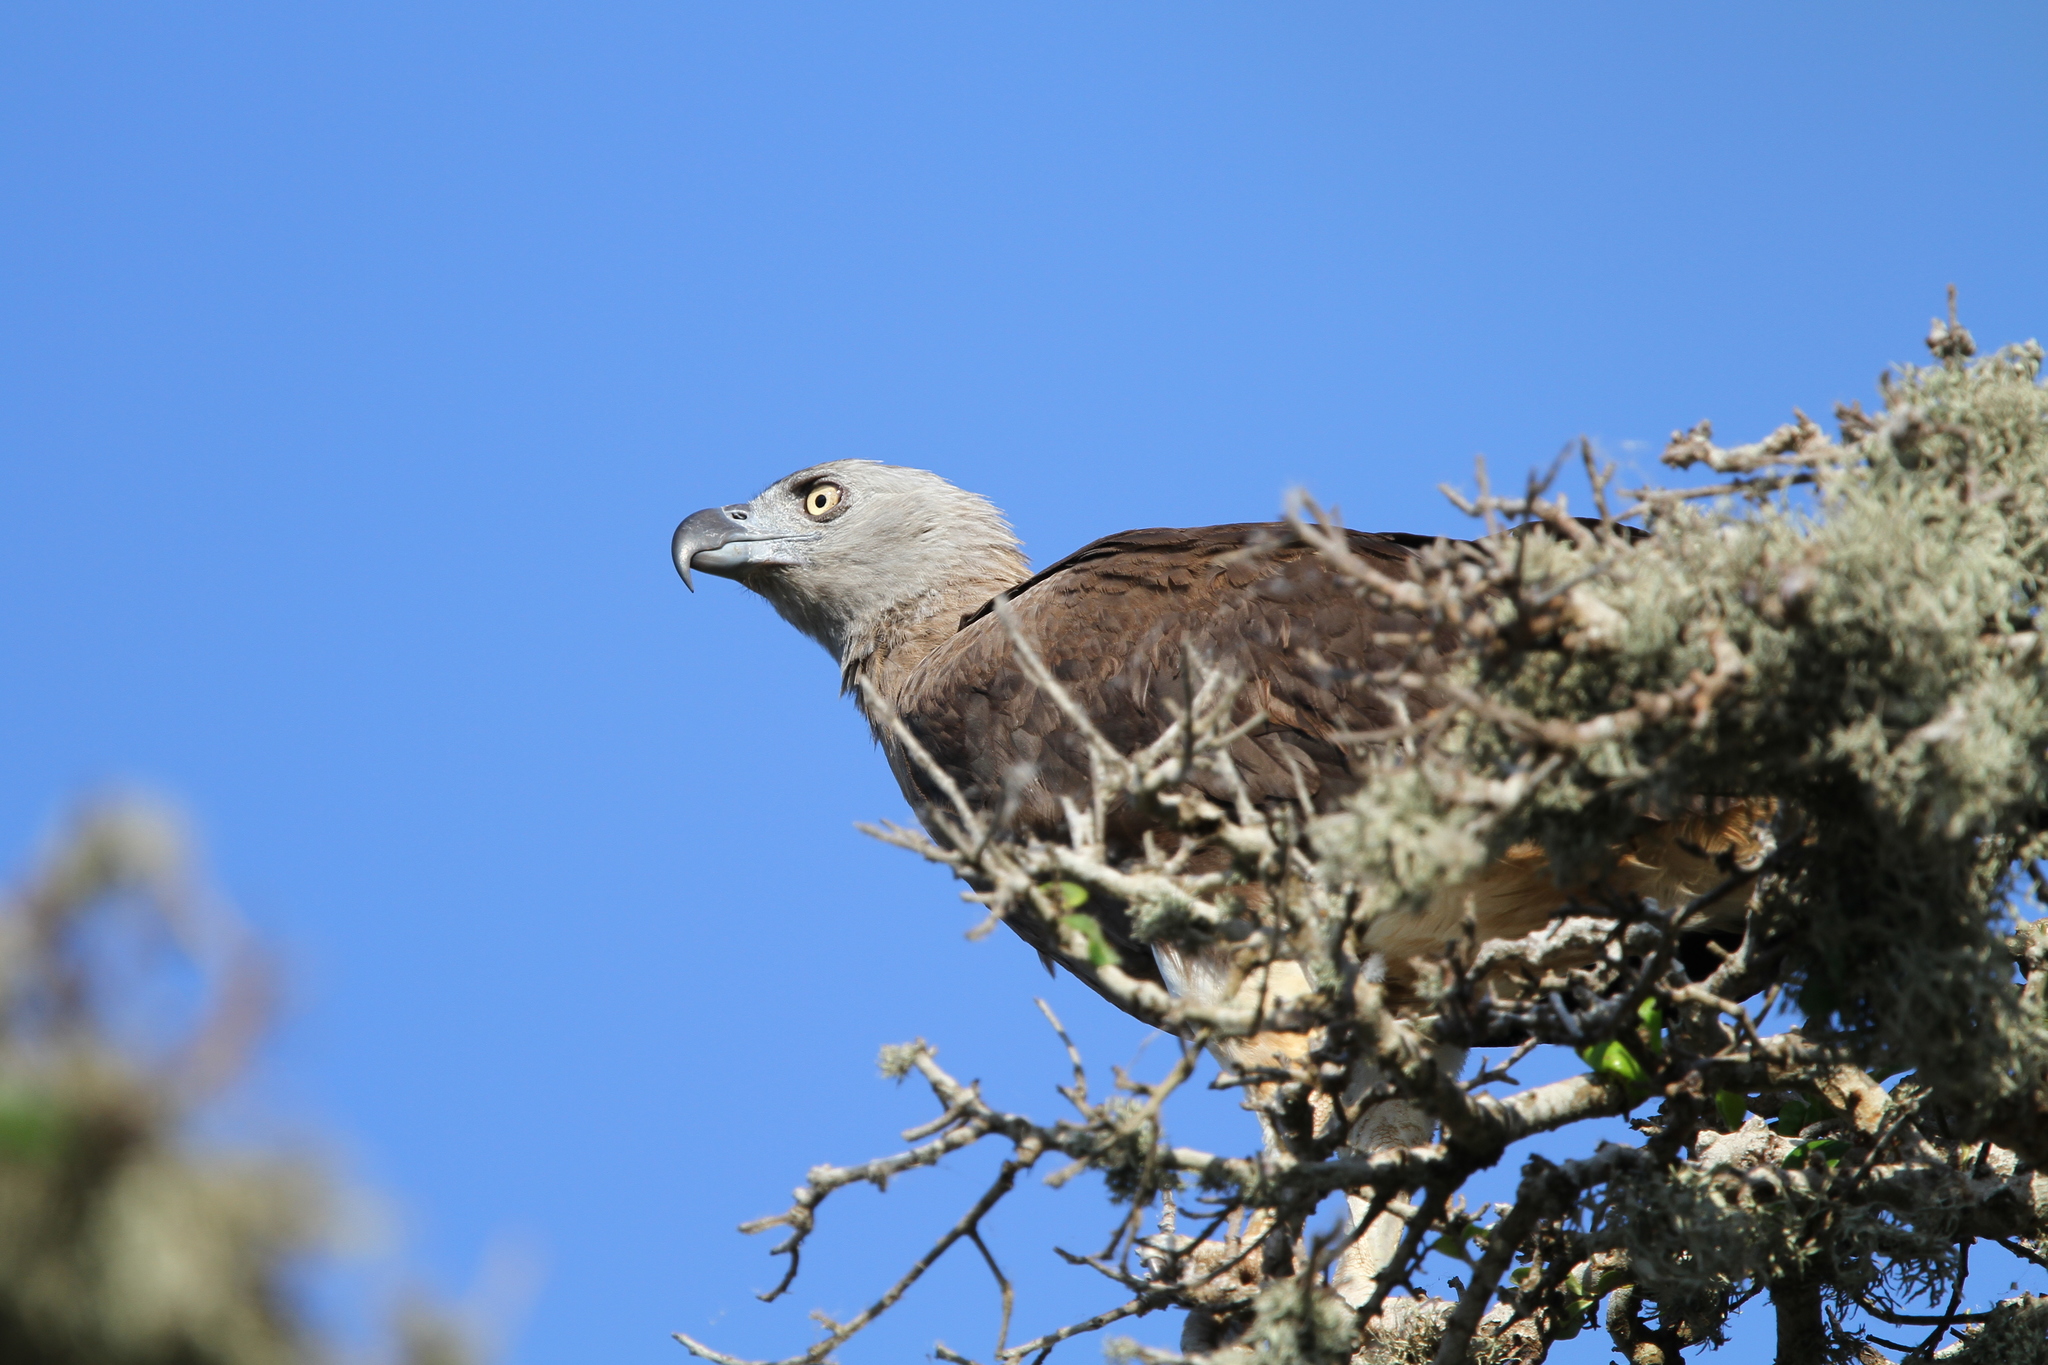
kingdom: Animalia
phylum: Chordata
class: Aves
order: Accipitriformes
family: Accipitridae
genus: Icthyophaga
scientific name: Icthyophaga ichthyaetus
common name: Grey-headed fish eagle
